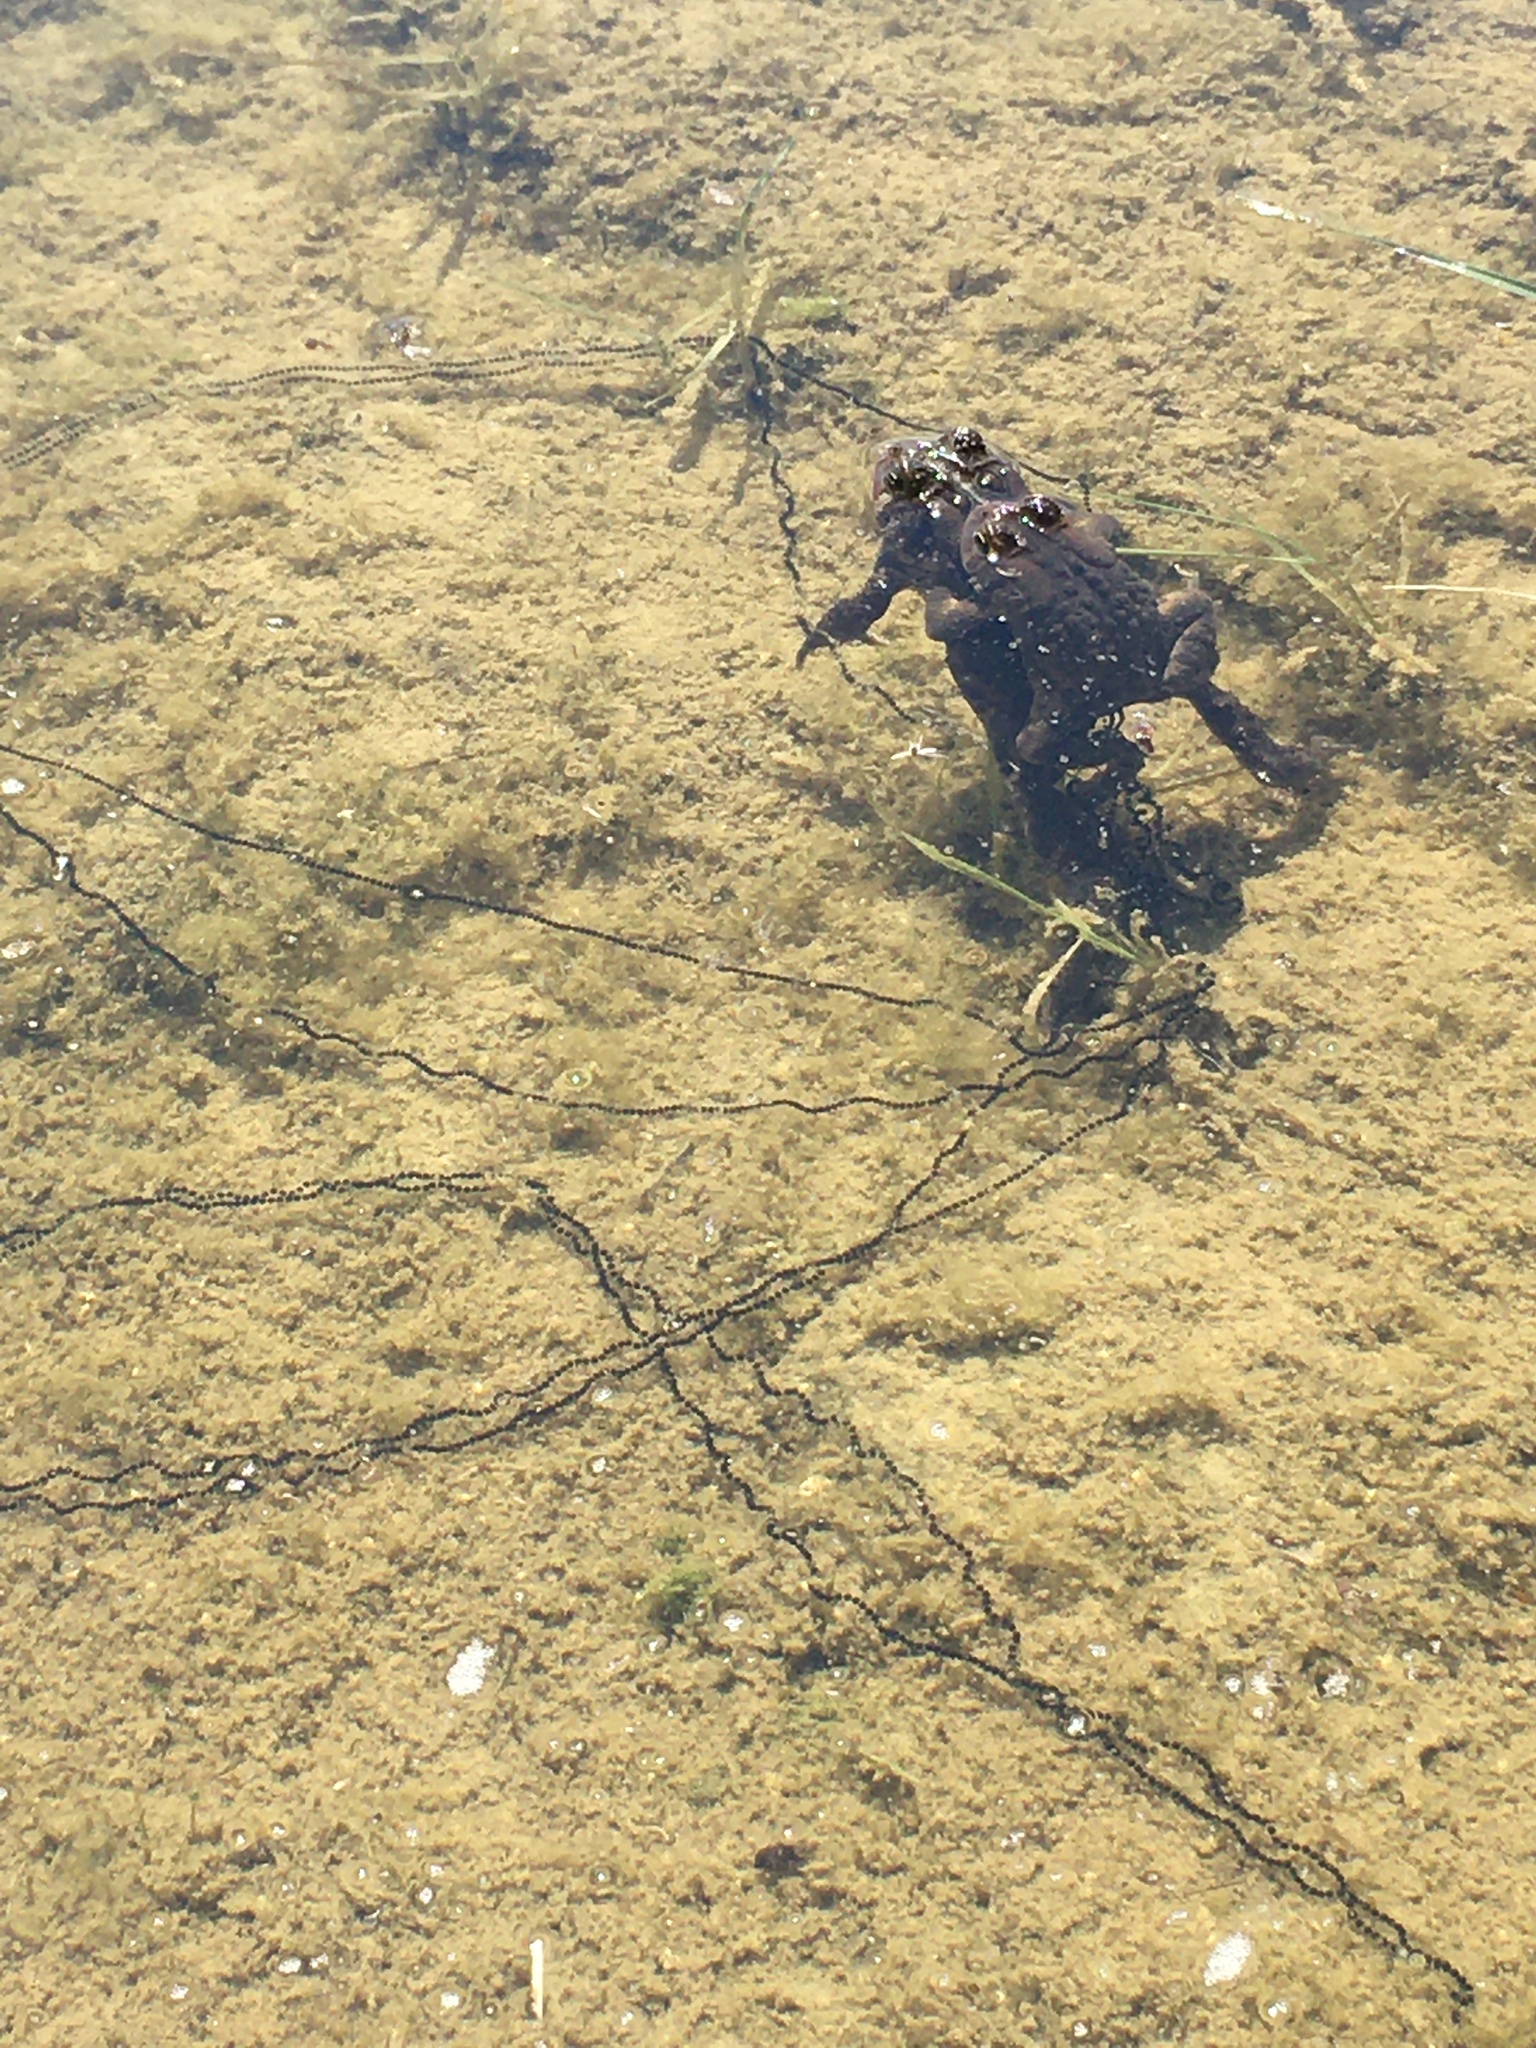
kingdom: Animalia
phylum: Chordata
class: Amphibia
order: Anura
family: Bufonidae
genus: Anaxyrus
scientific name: Anaxyrus americanus
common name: American toad
